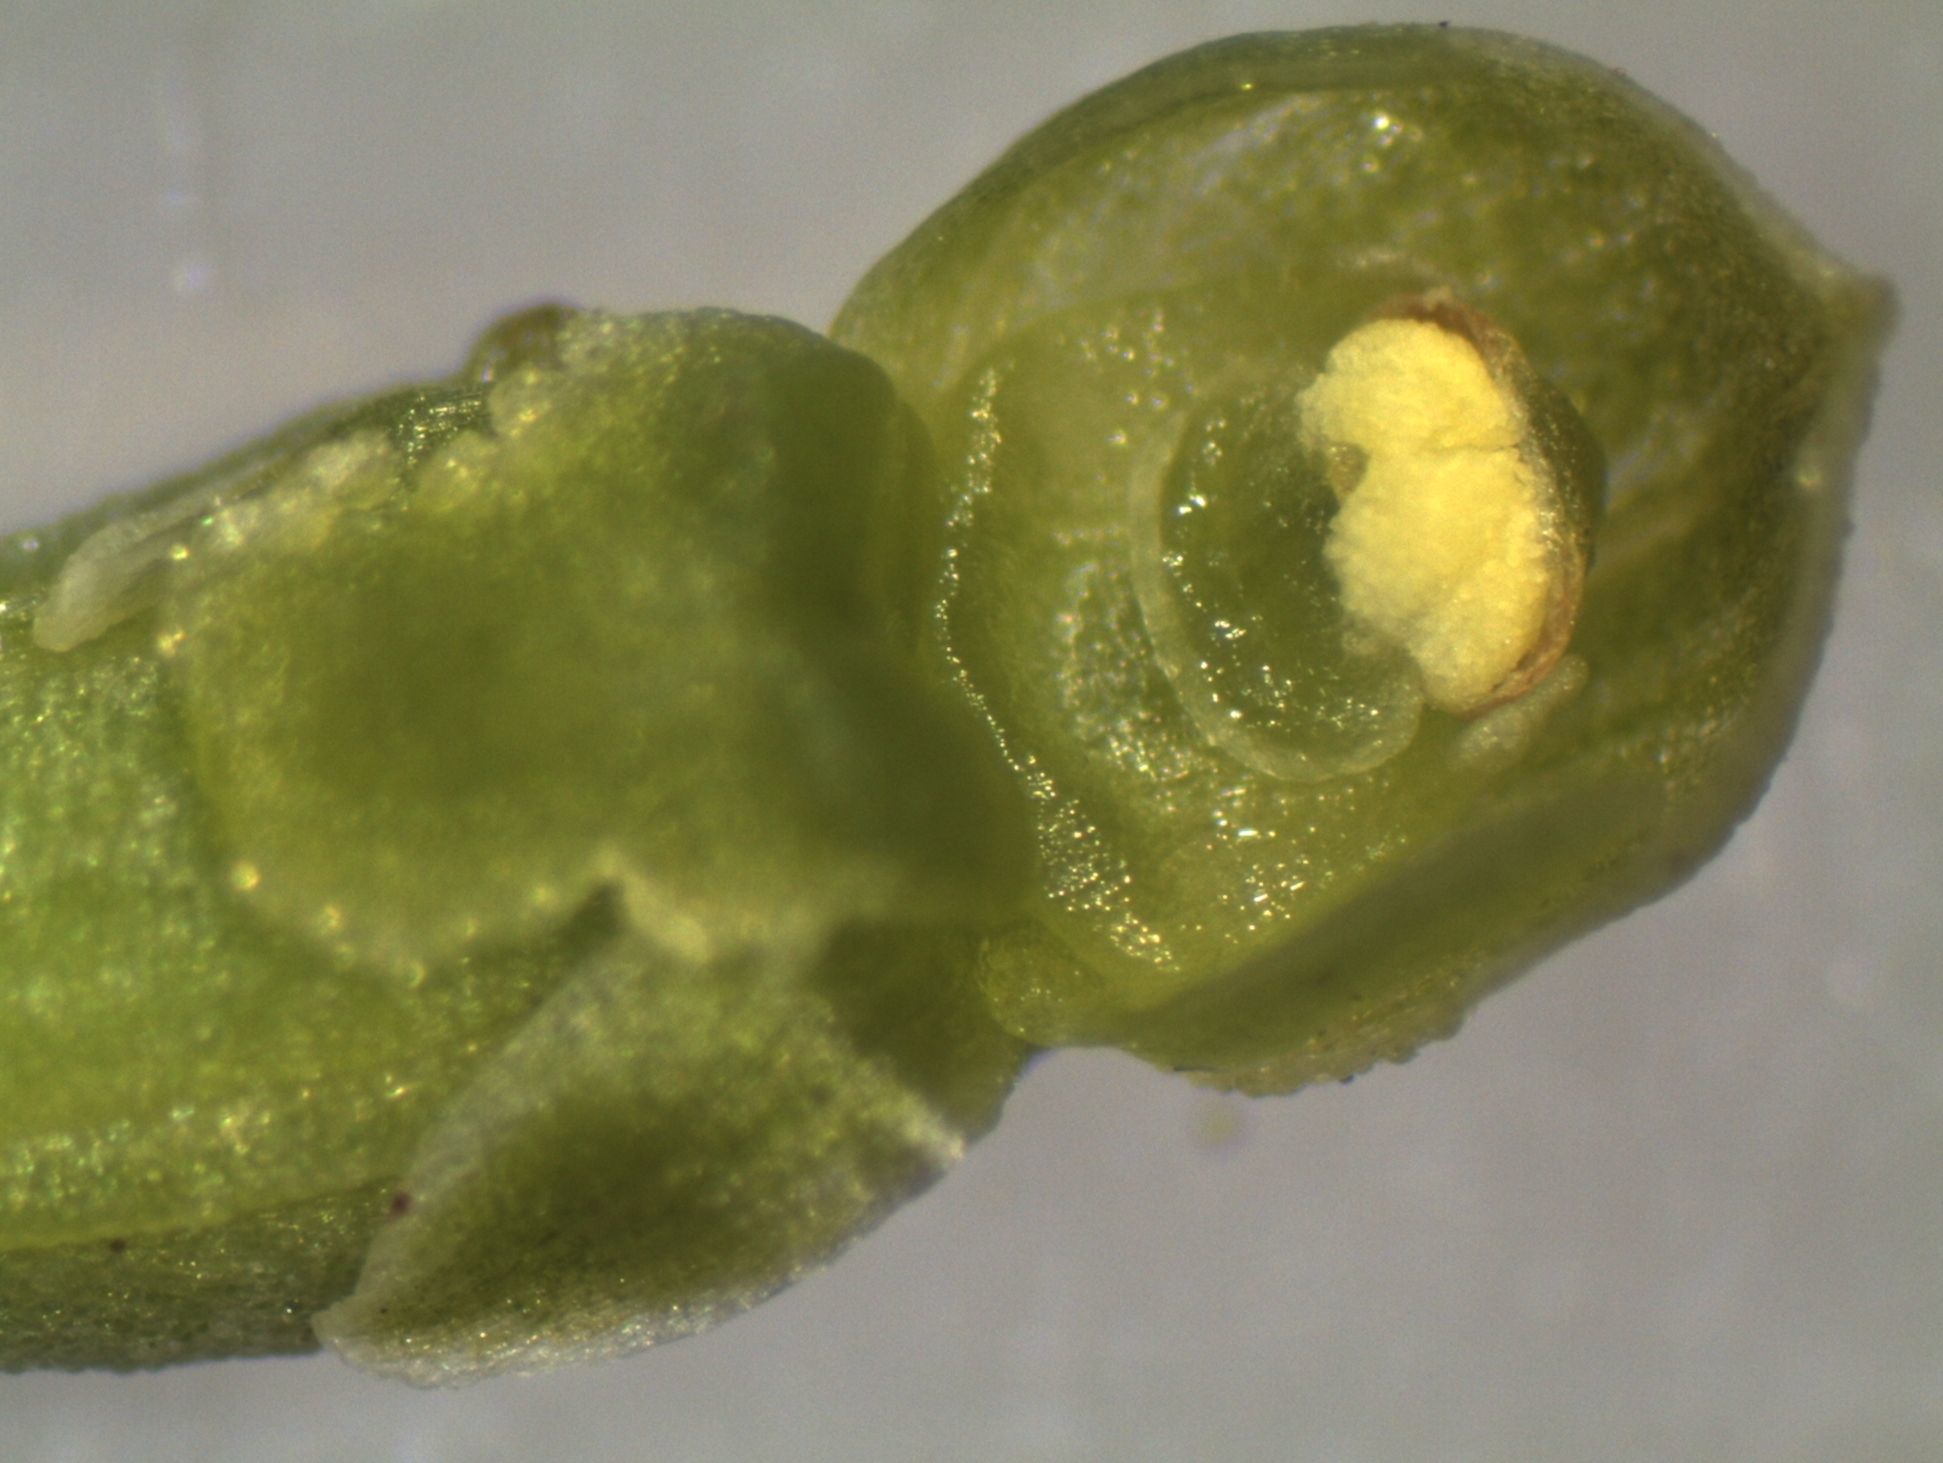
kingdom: Plantae
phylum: Tracheophyta
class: Liliopsida
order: Asparagales
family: Orchidaceae
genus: Microtis
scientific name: Microtis oligantha
